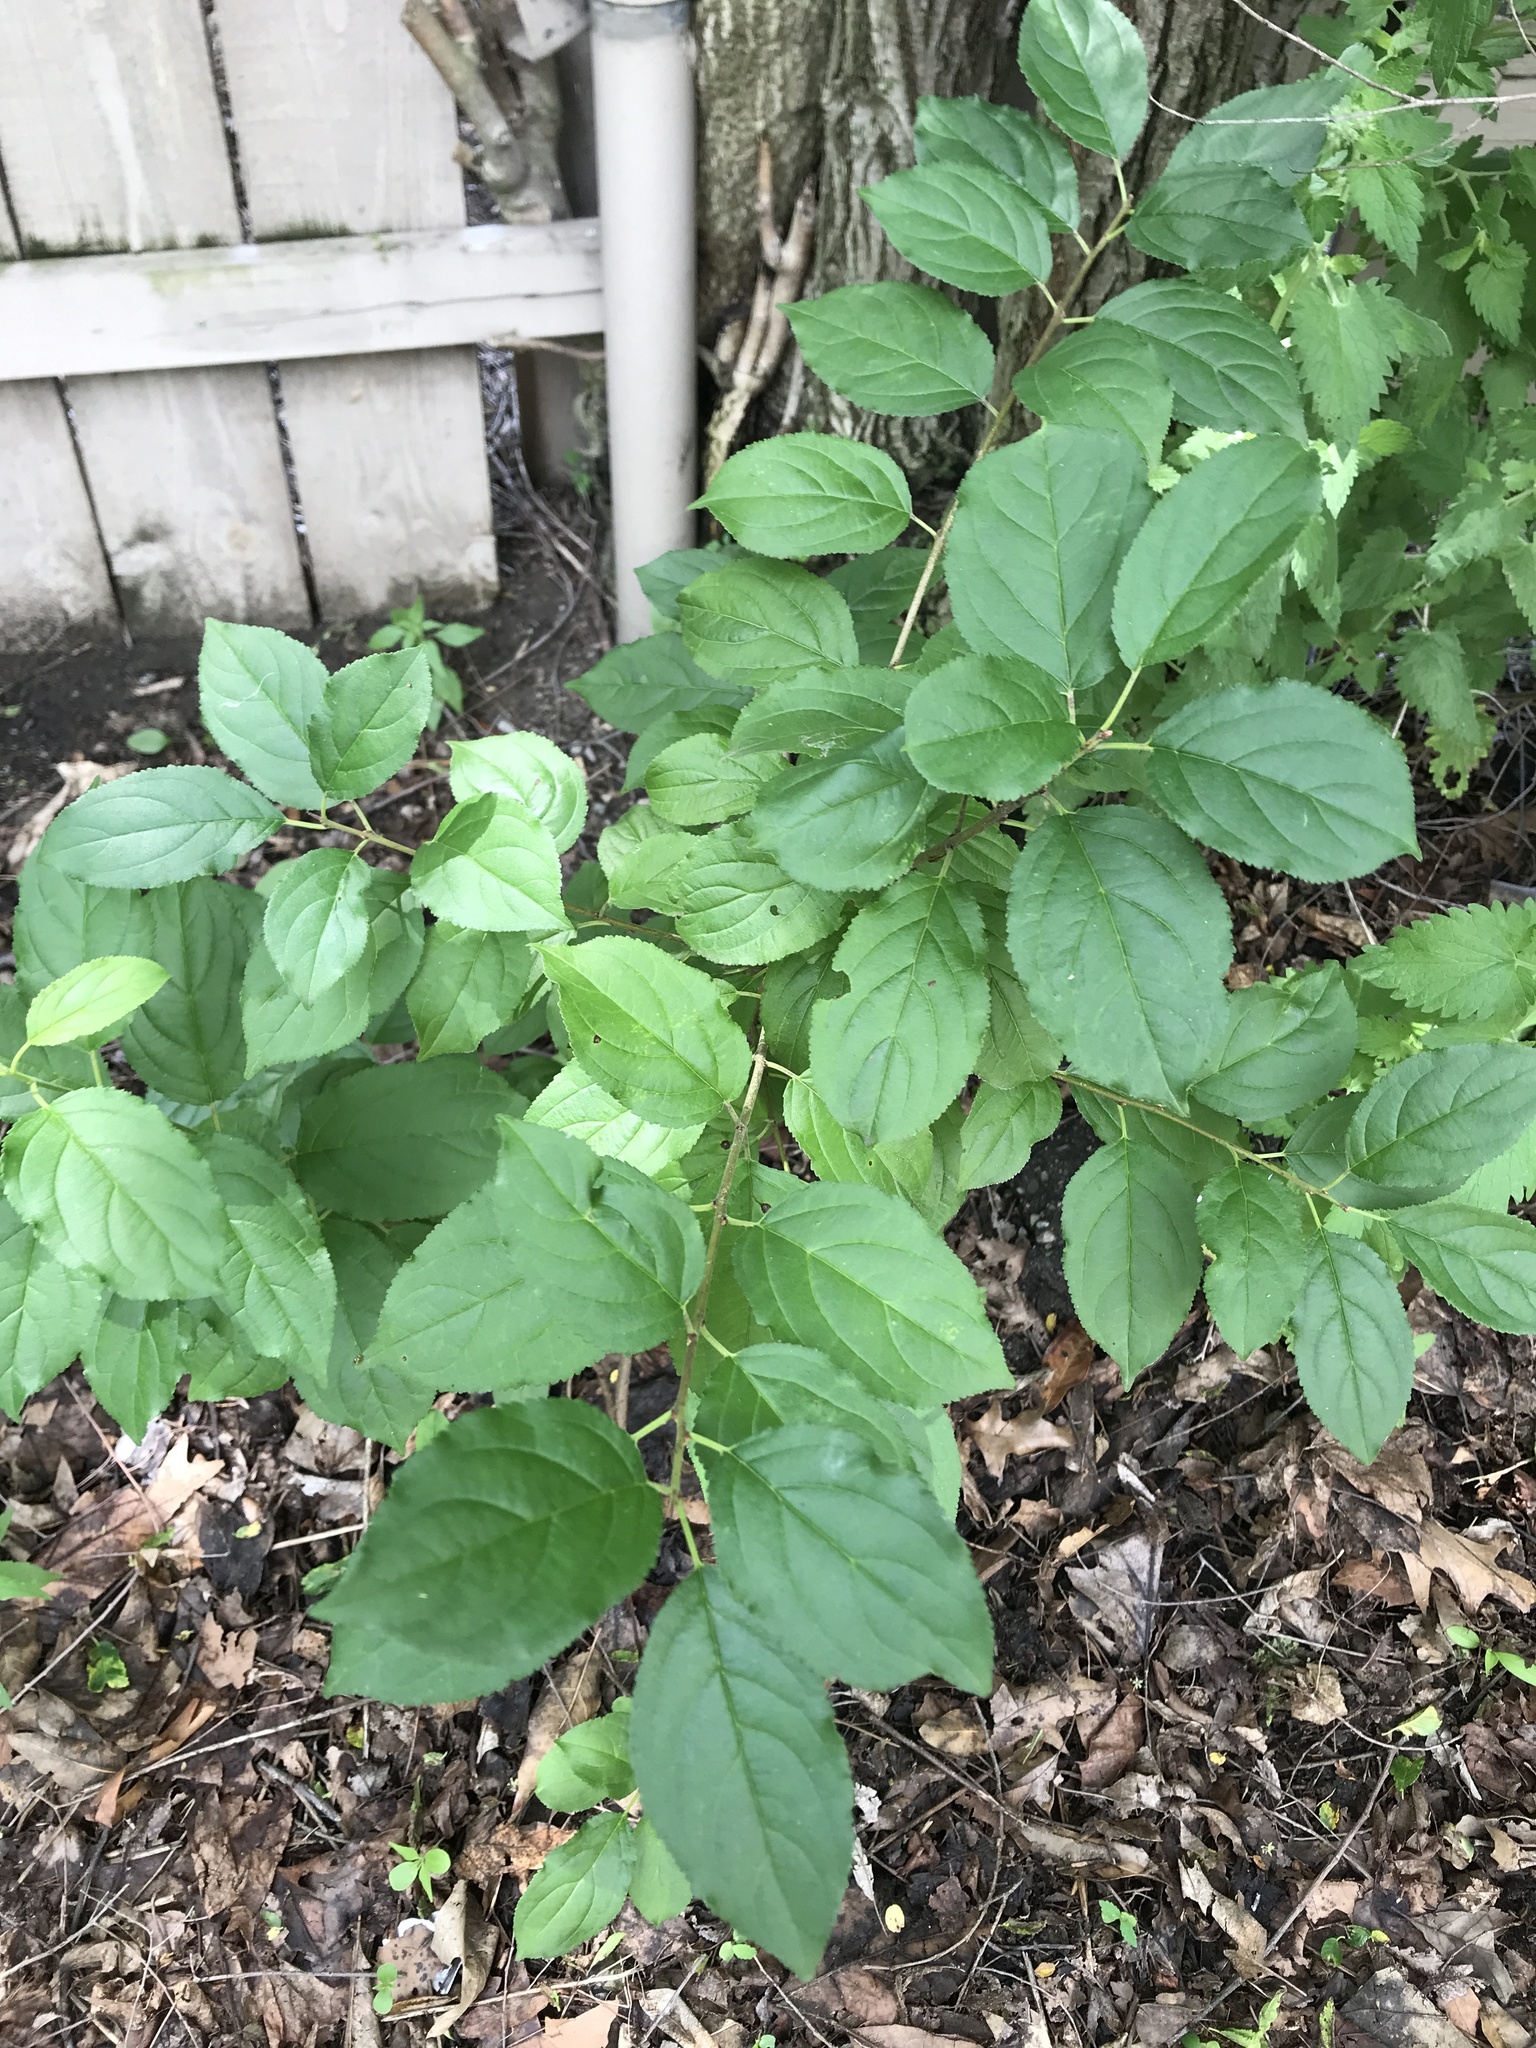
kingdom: Plantae
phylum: Tracheophyta
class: Magnoliopsida
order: Rosales
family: Rhamnaceae
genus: Rhamnus
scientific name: Rhamnus cathartica
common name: Common buckthorn
